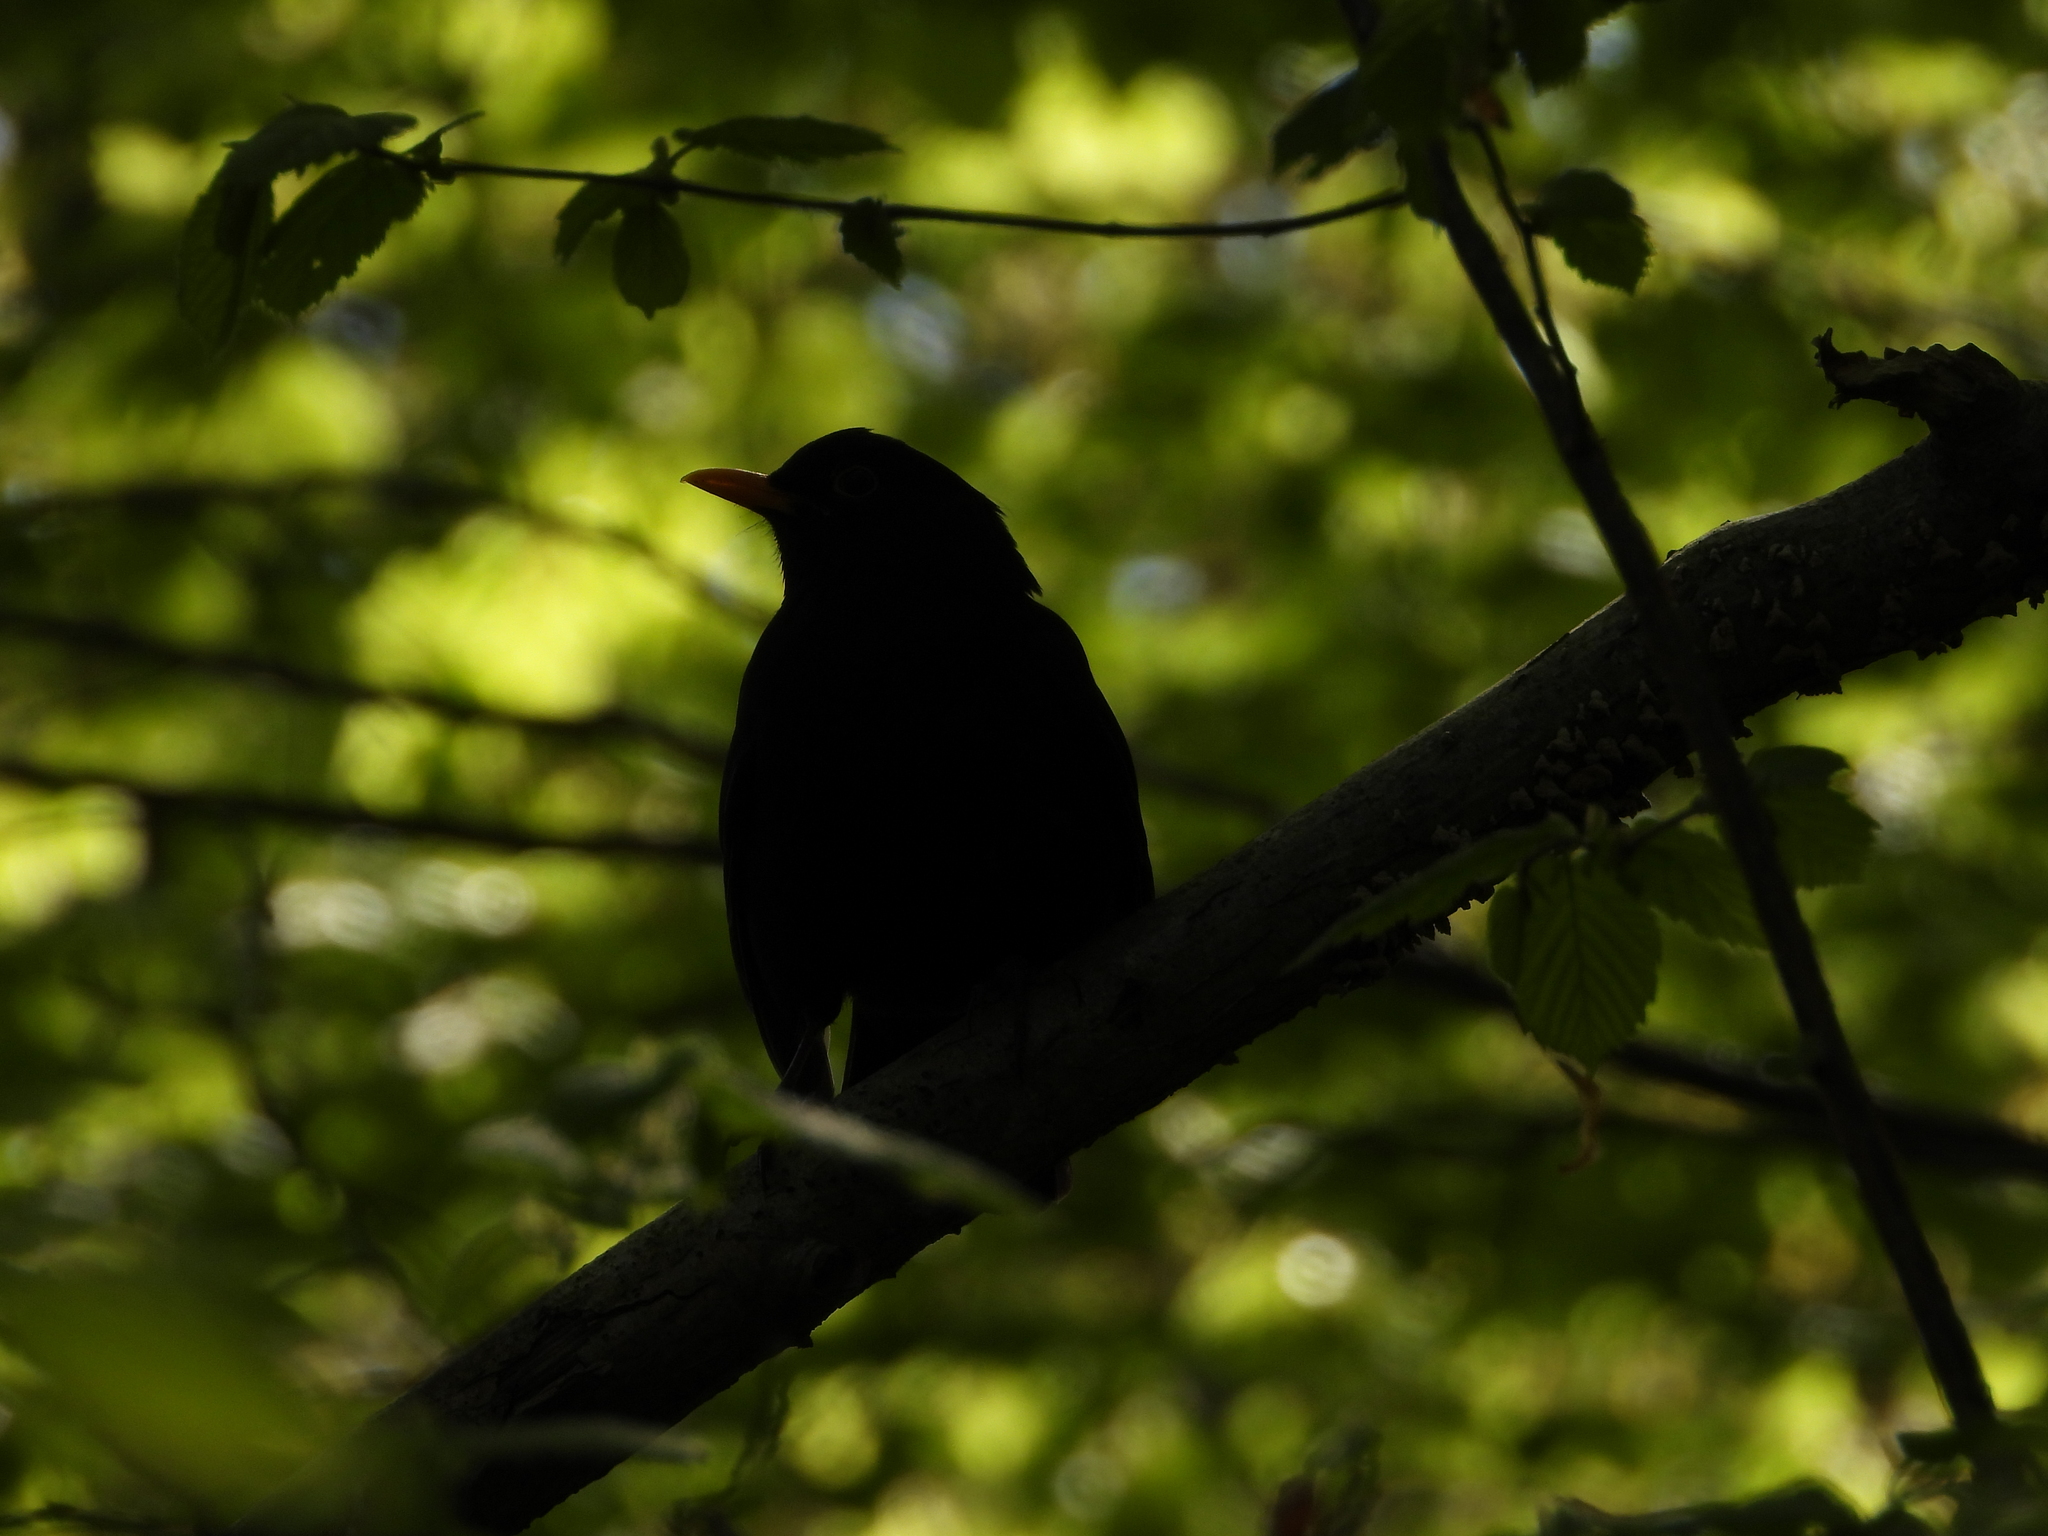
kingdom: Animalia
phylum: Chordata
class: Aves
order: Passeriformes
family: Turdidae
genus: Turdus
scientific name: Turdus merula
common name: Common blackbird
